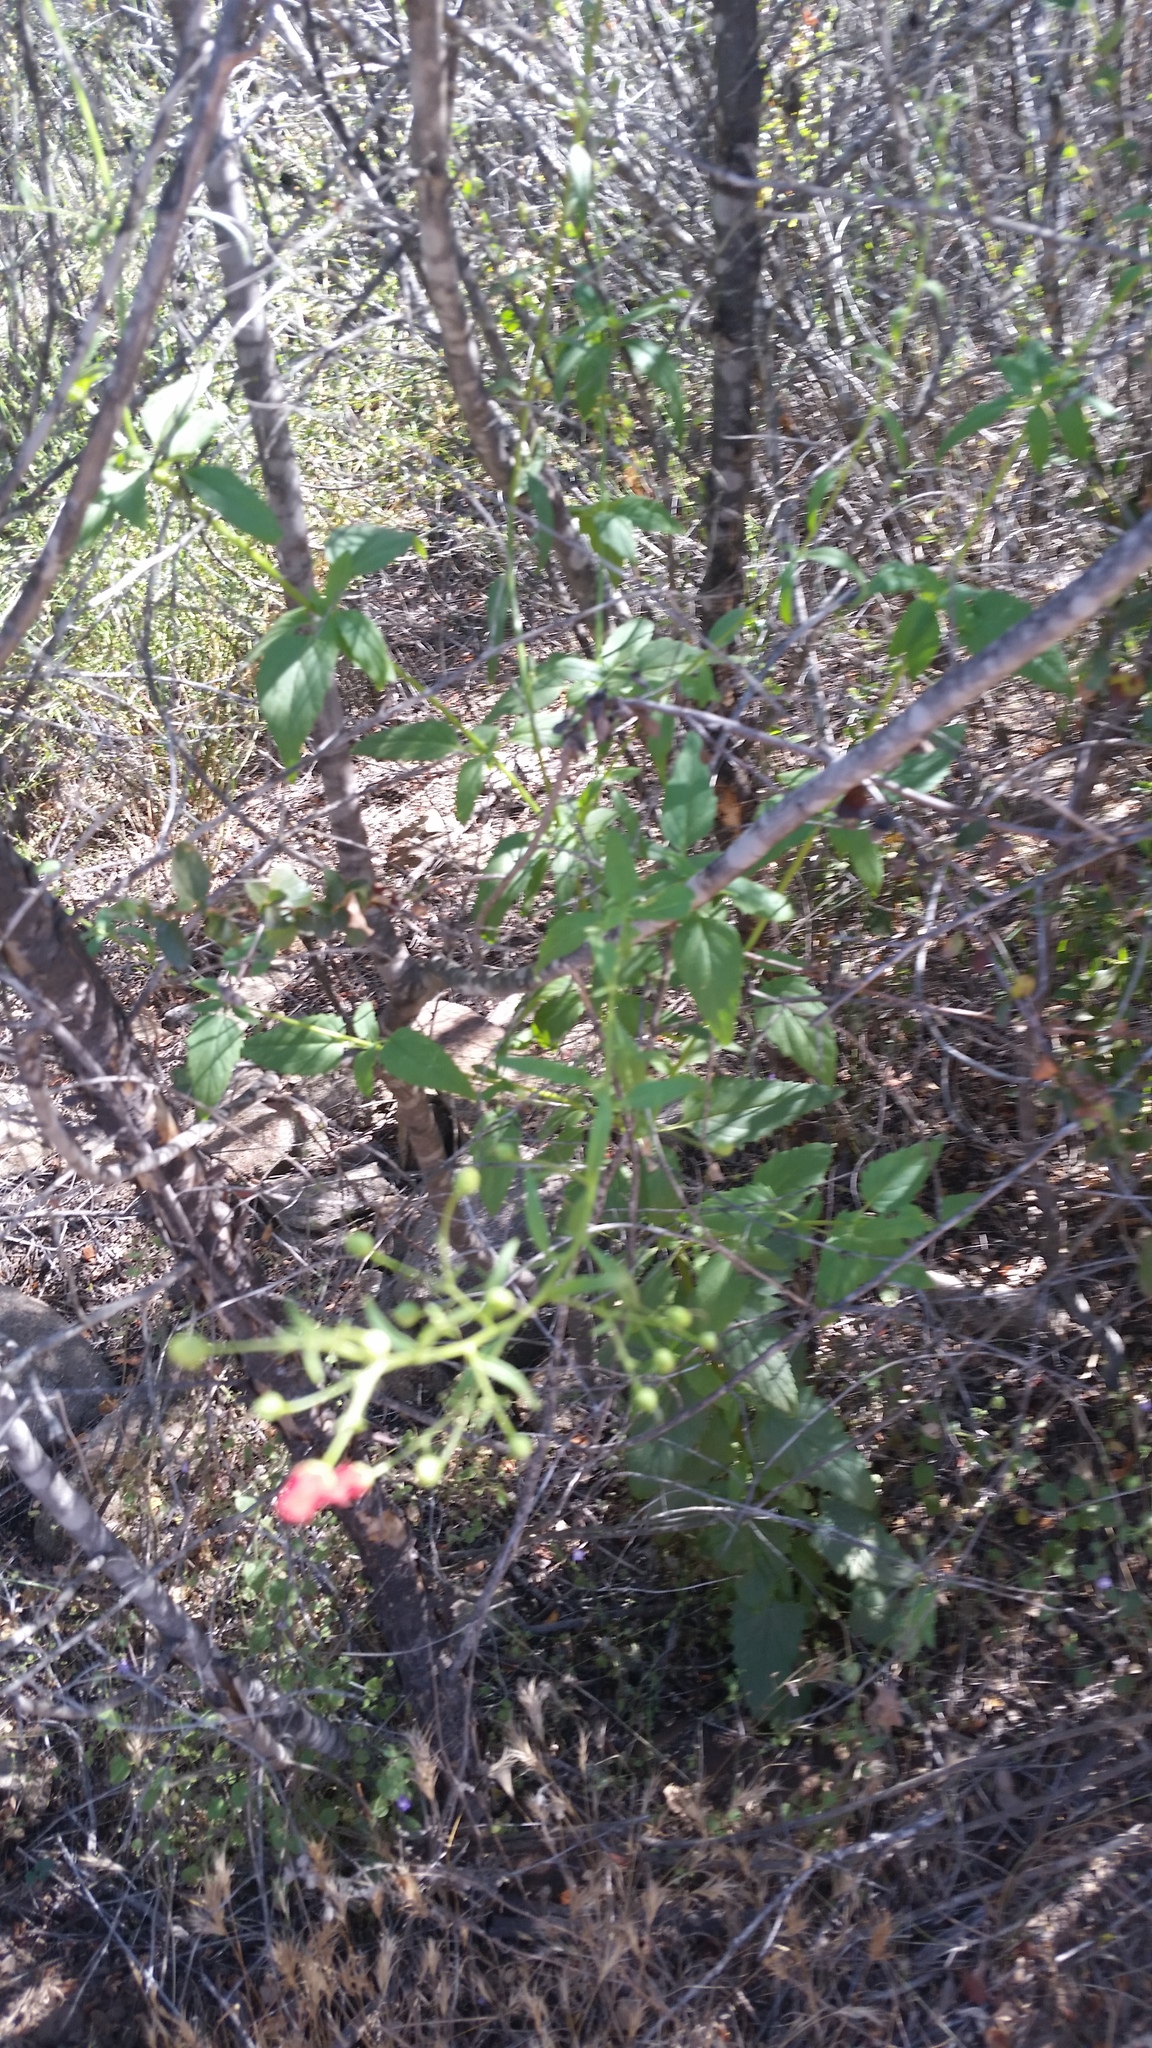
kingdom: Plantae
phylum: Tracheophyta
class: Magnoliopsida
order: Lamiales
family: Scrophulariaceae
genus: Scrophularia
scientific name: Scrophularia californica
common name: California figwort
